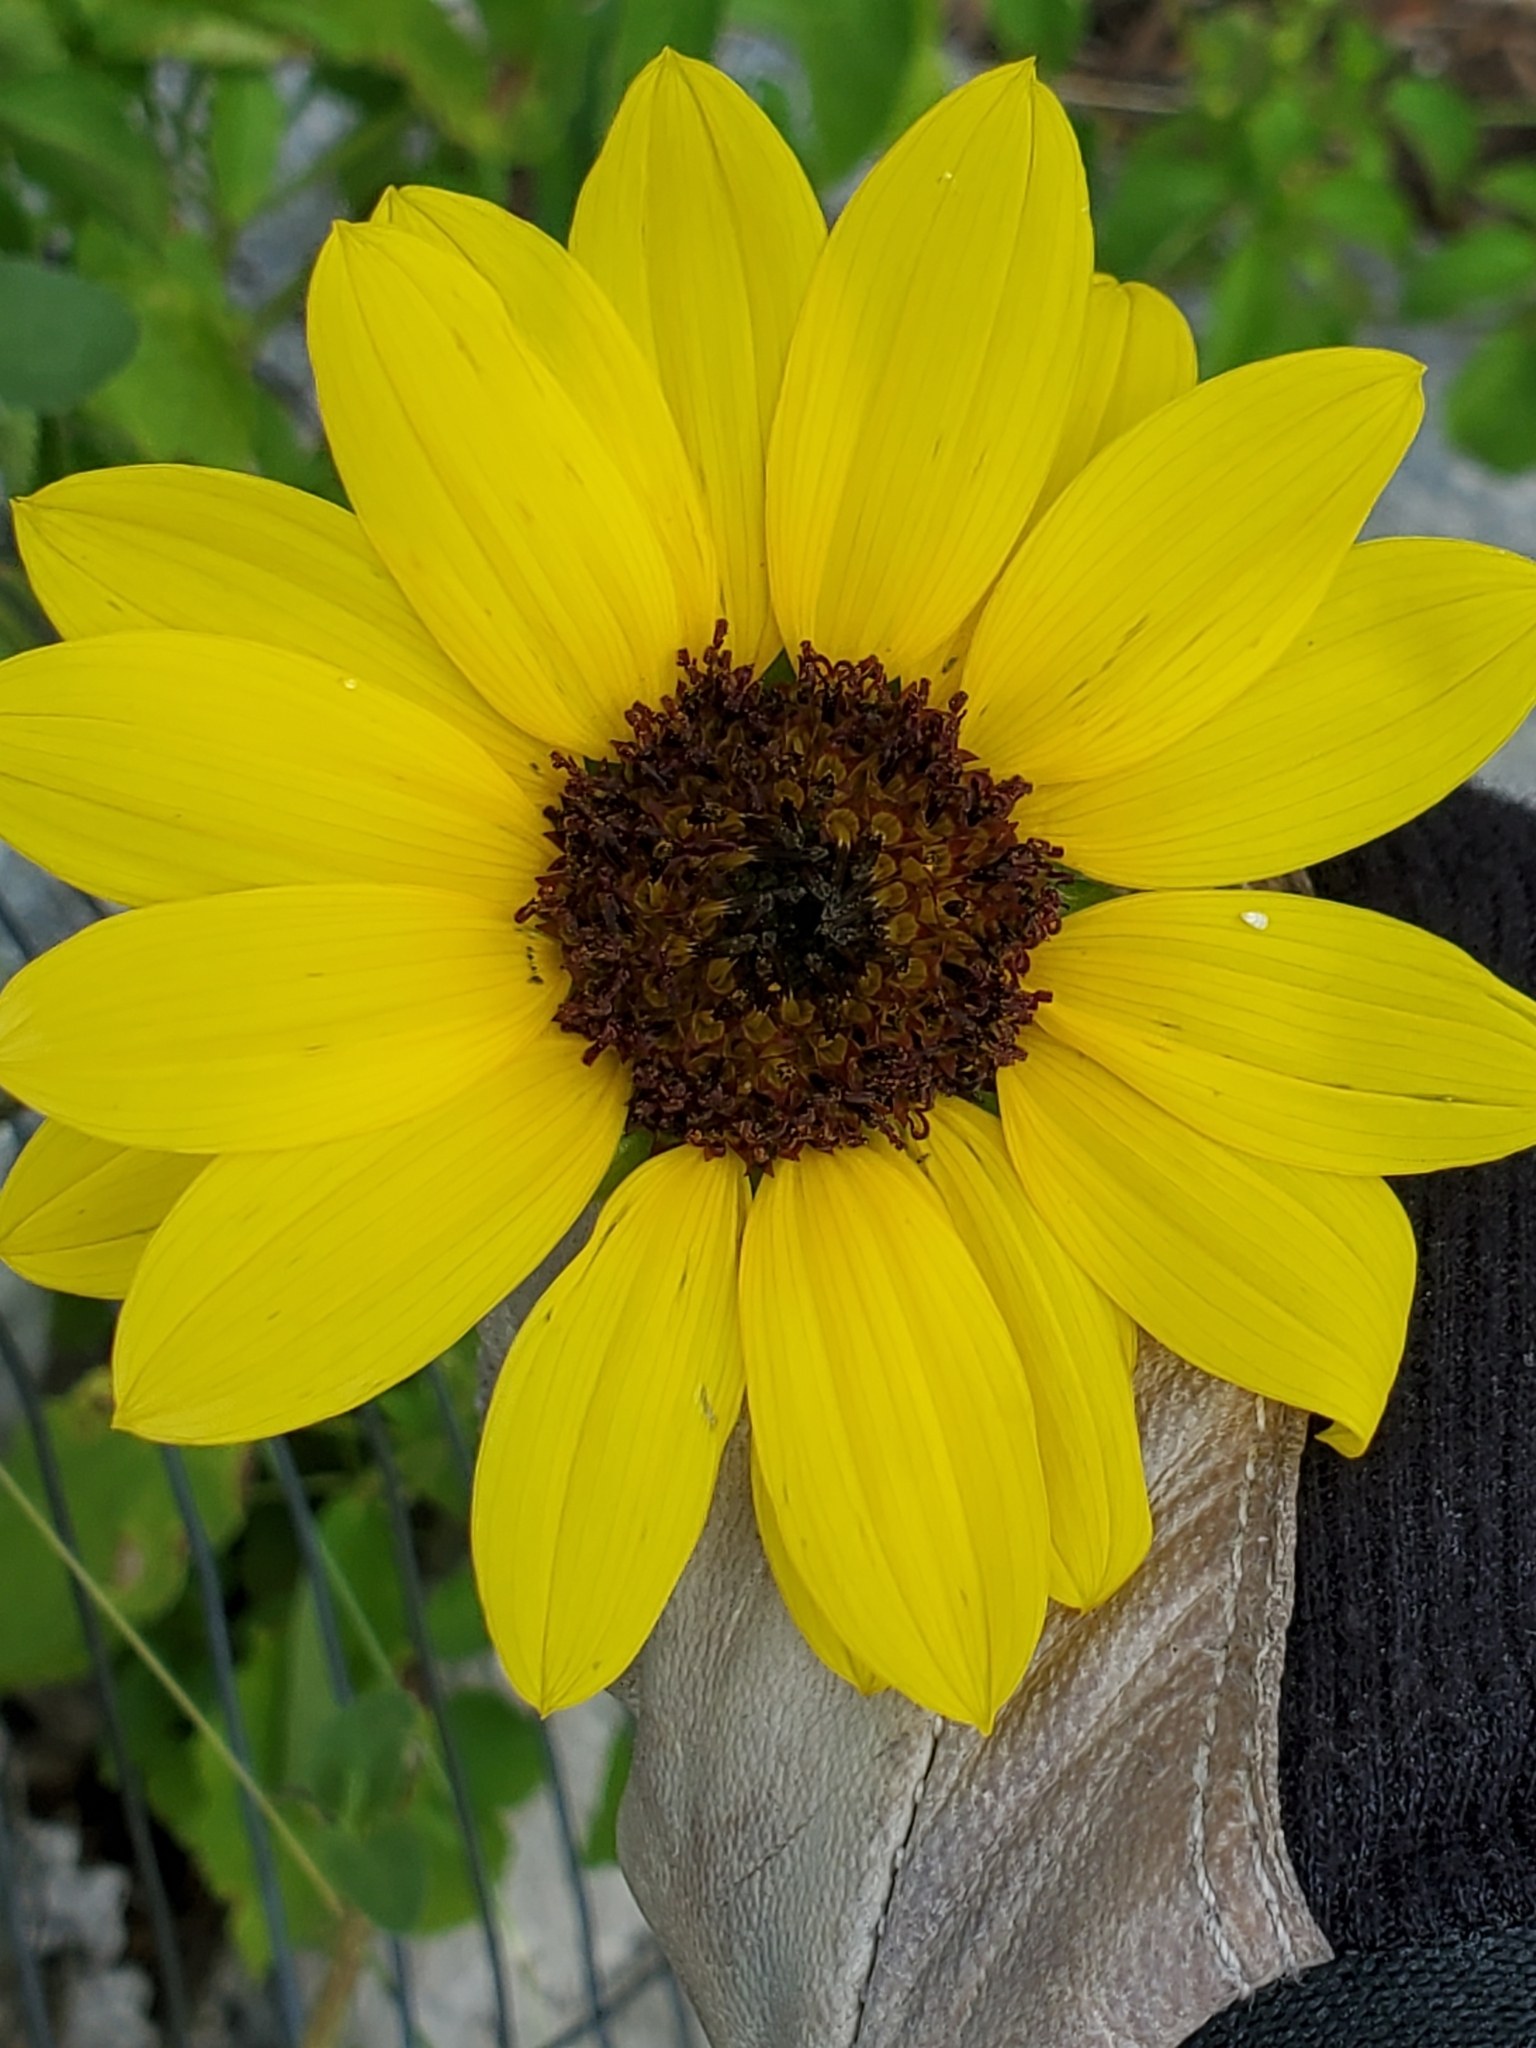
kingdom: Plantae
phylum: Tracheophyta
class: Magnoliopsida
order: Asterales
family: Asteraceae
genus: Helianthus
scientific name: Helianthus annuus
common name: Sunflower
